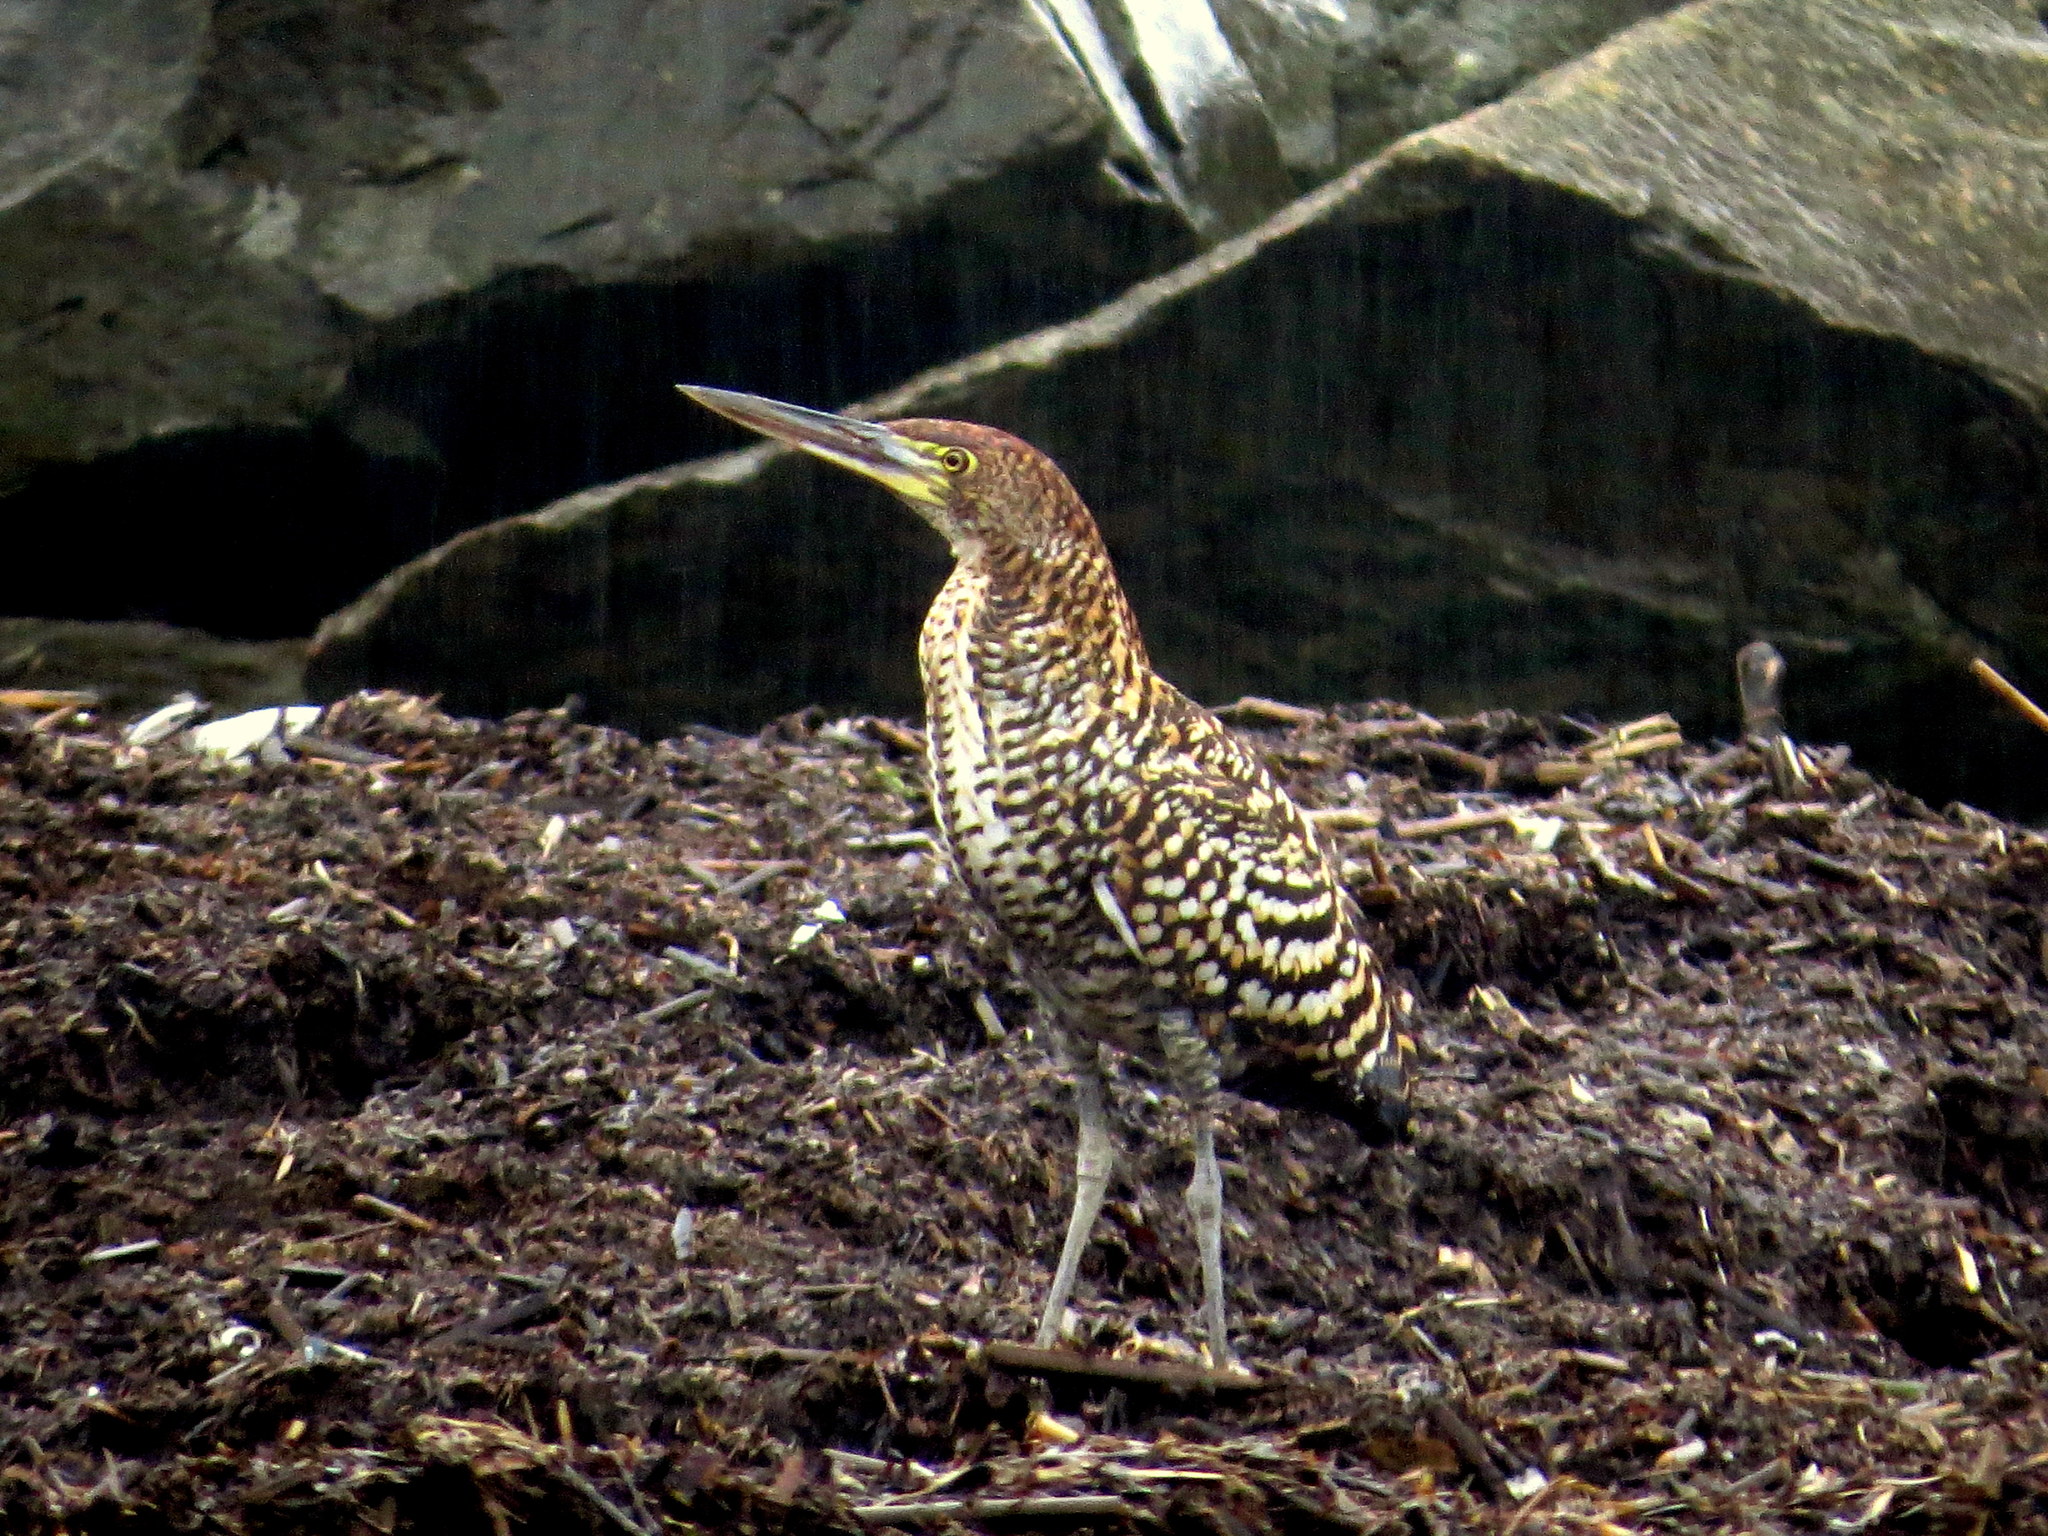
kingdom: Animalia
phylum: Chordata
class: Aves
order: Pelecaniformes
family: Ardeidae
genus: Tigrisoma
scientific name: Tigrisoma lineatum
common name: Rufescent tiger-heron
